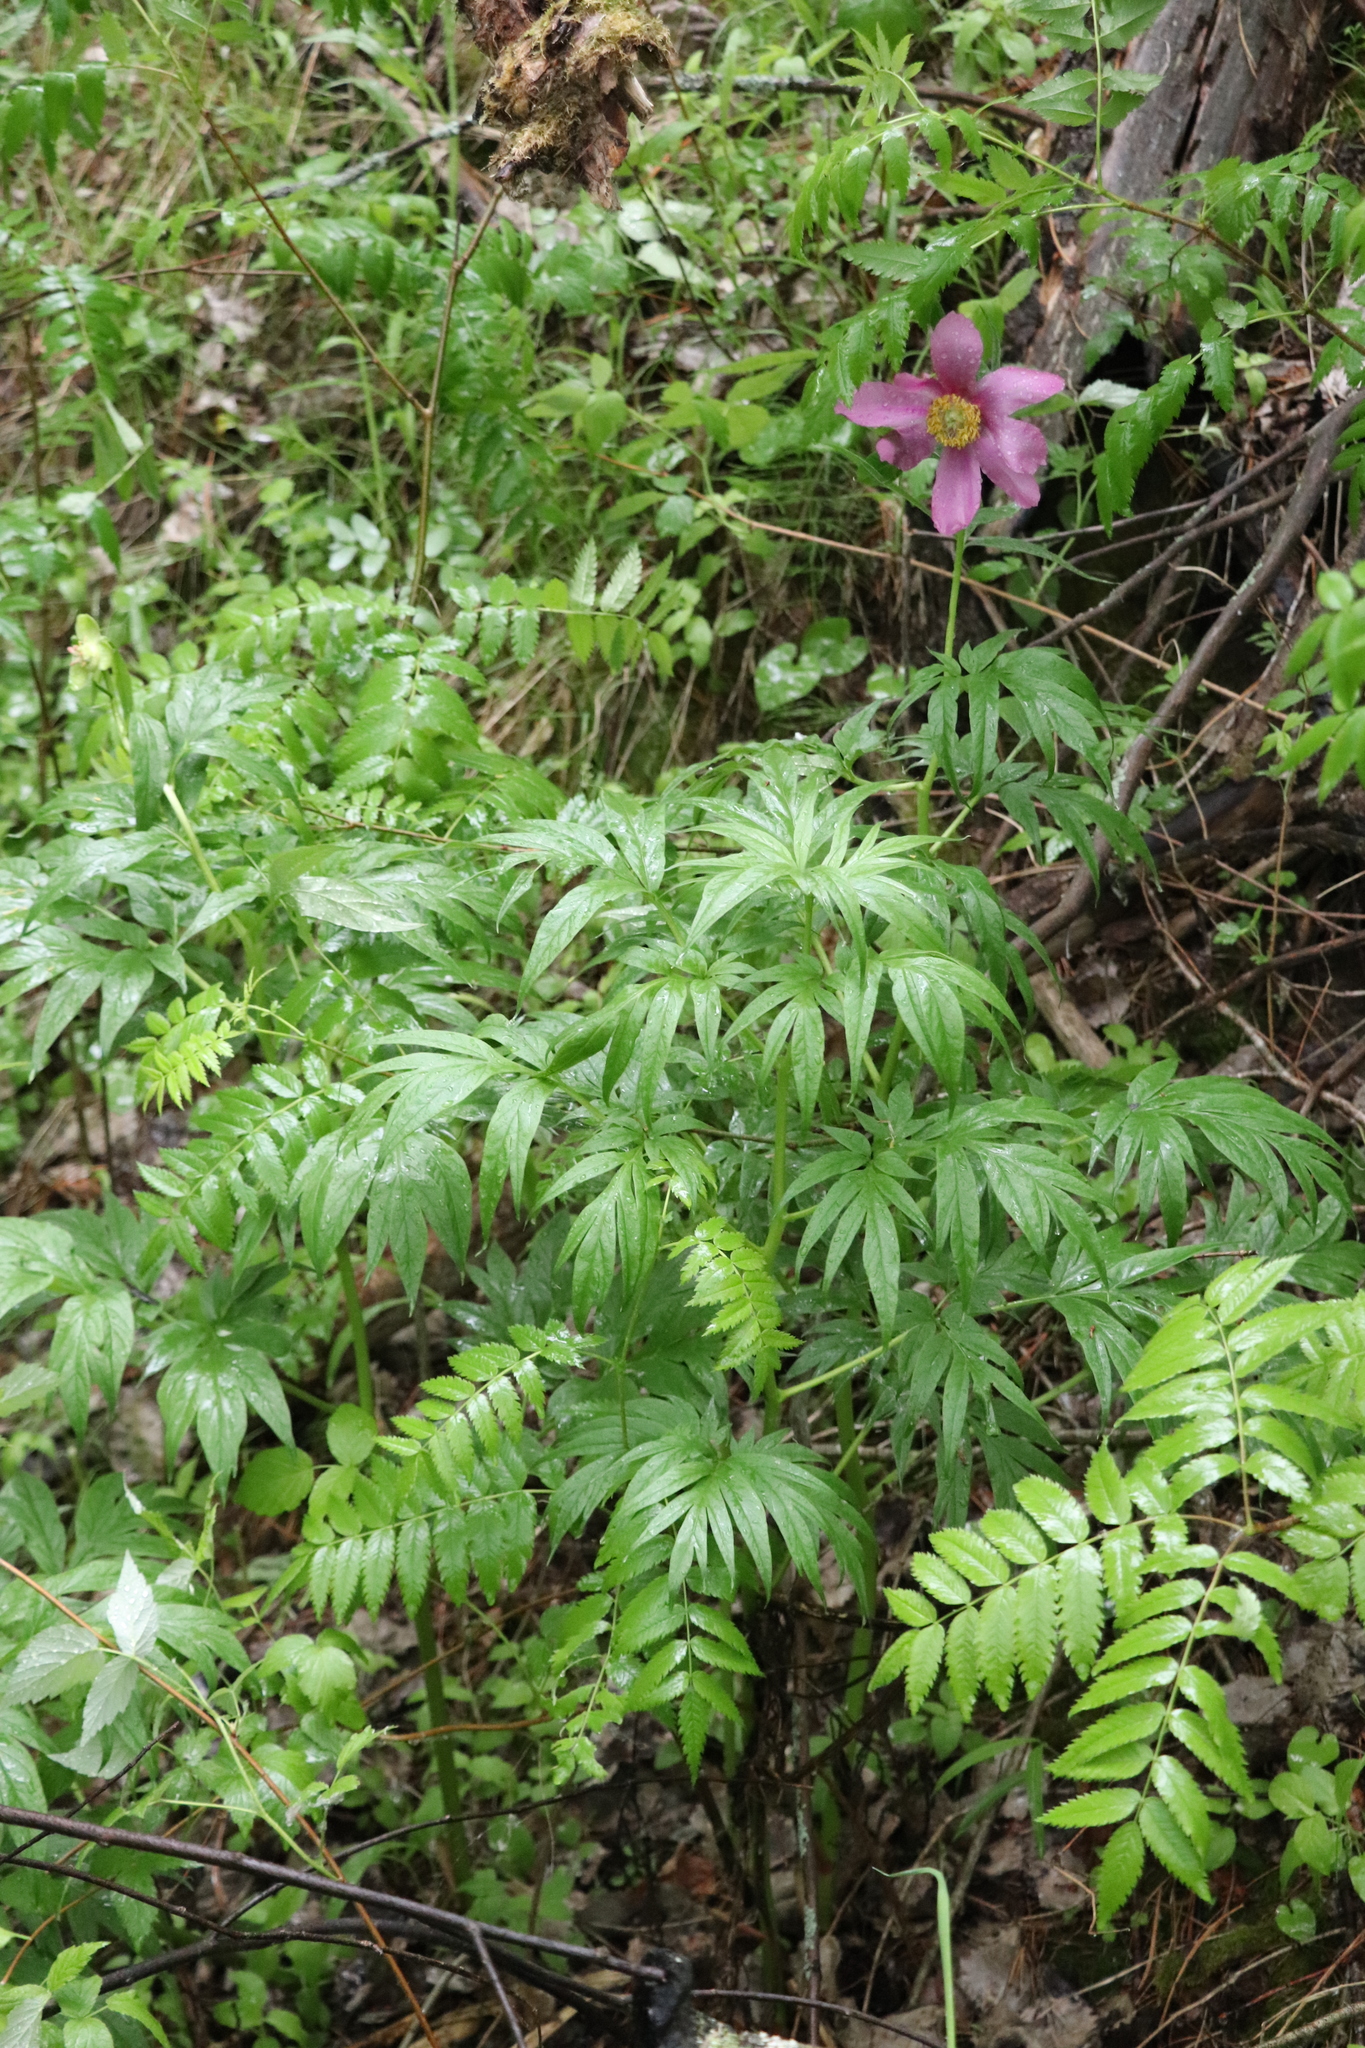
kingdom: Plantae
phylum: Tracheophyta
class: Magnoliopsida
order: Saxifragales
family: Paeoniaceae
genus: Paeonia
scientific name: Paeonia anomala
